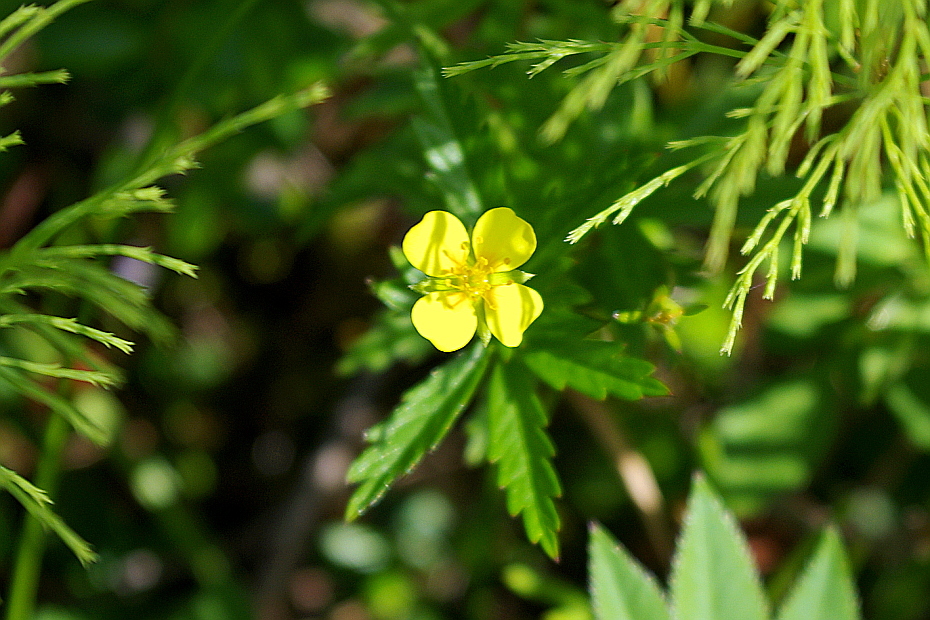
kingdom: Plantae
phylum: Tracheophyta
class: Magnoliopsida
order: Rosales
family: Rosaceae
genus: Potentilla
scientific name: Potentilla erecta
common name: Tormentil
